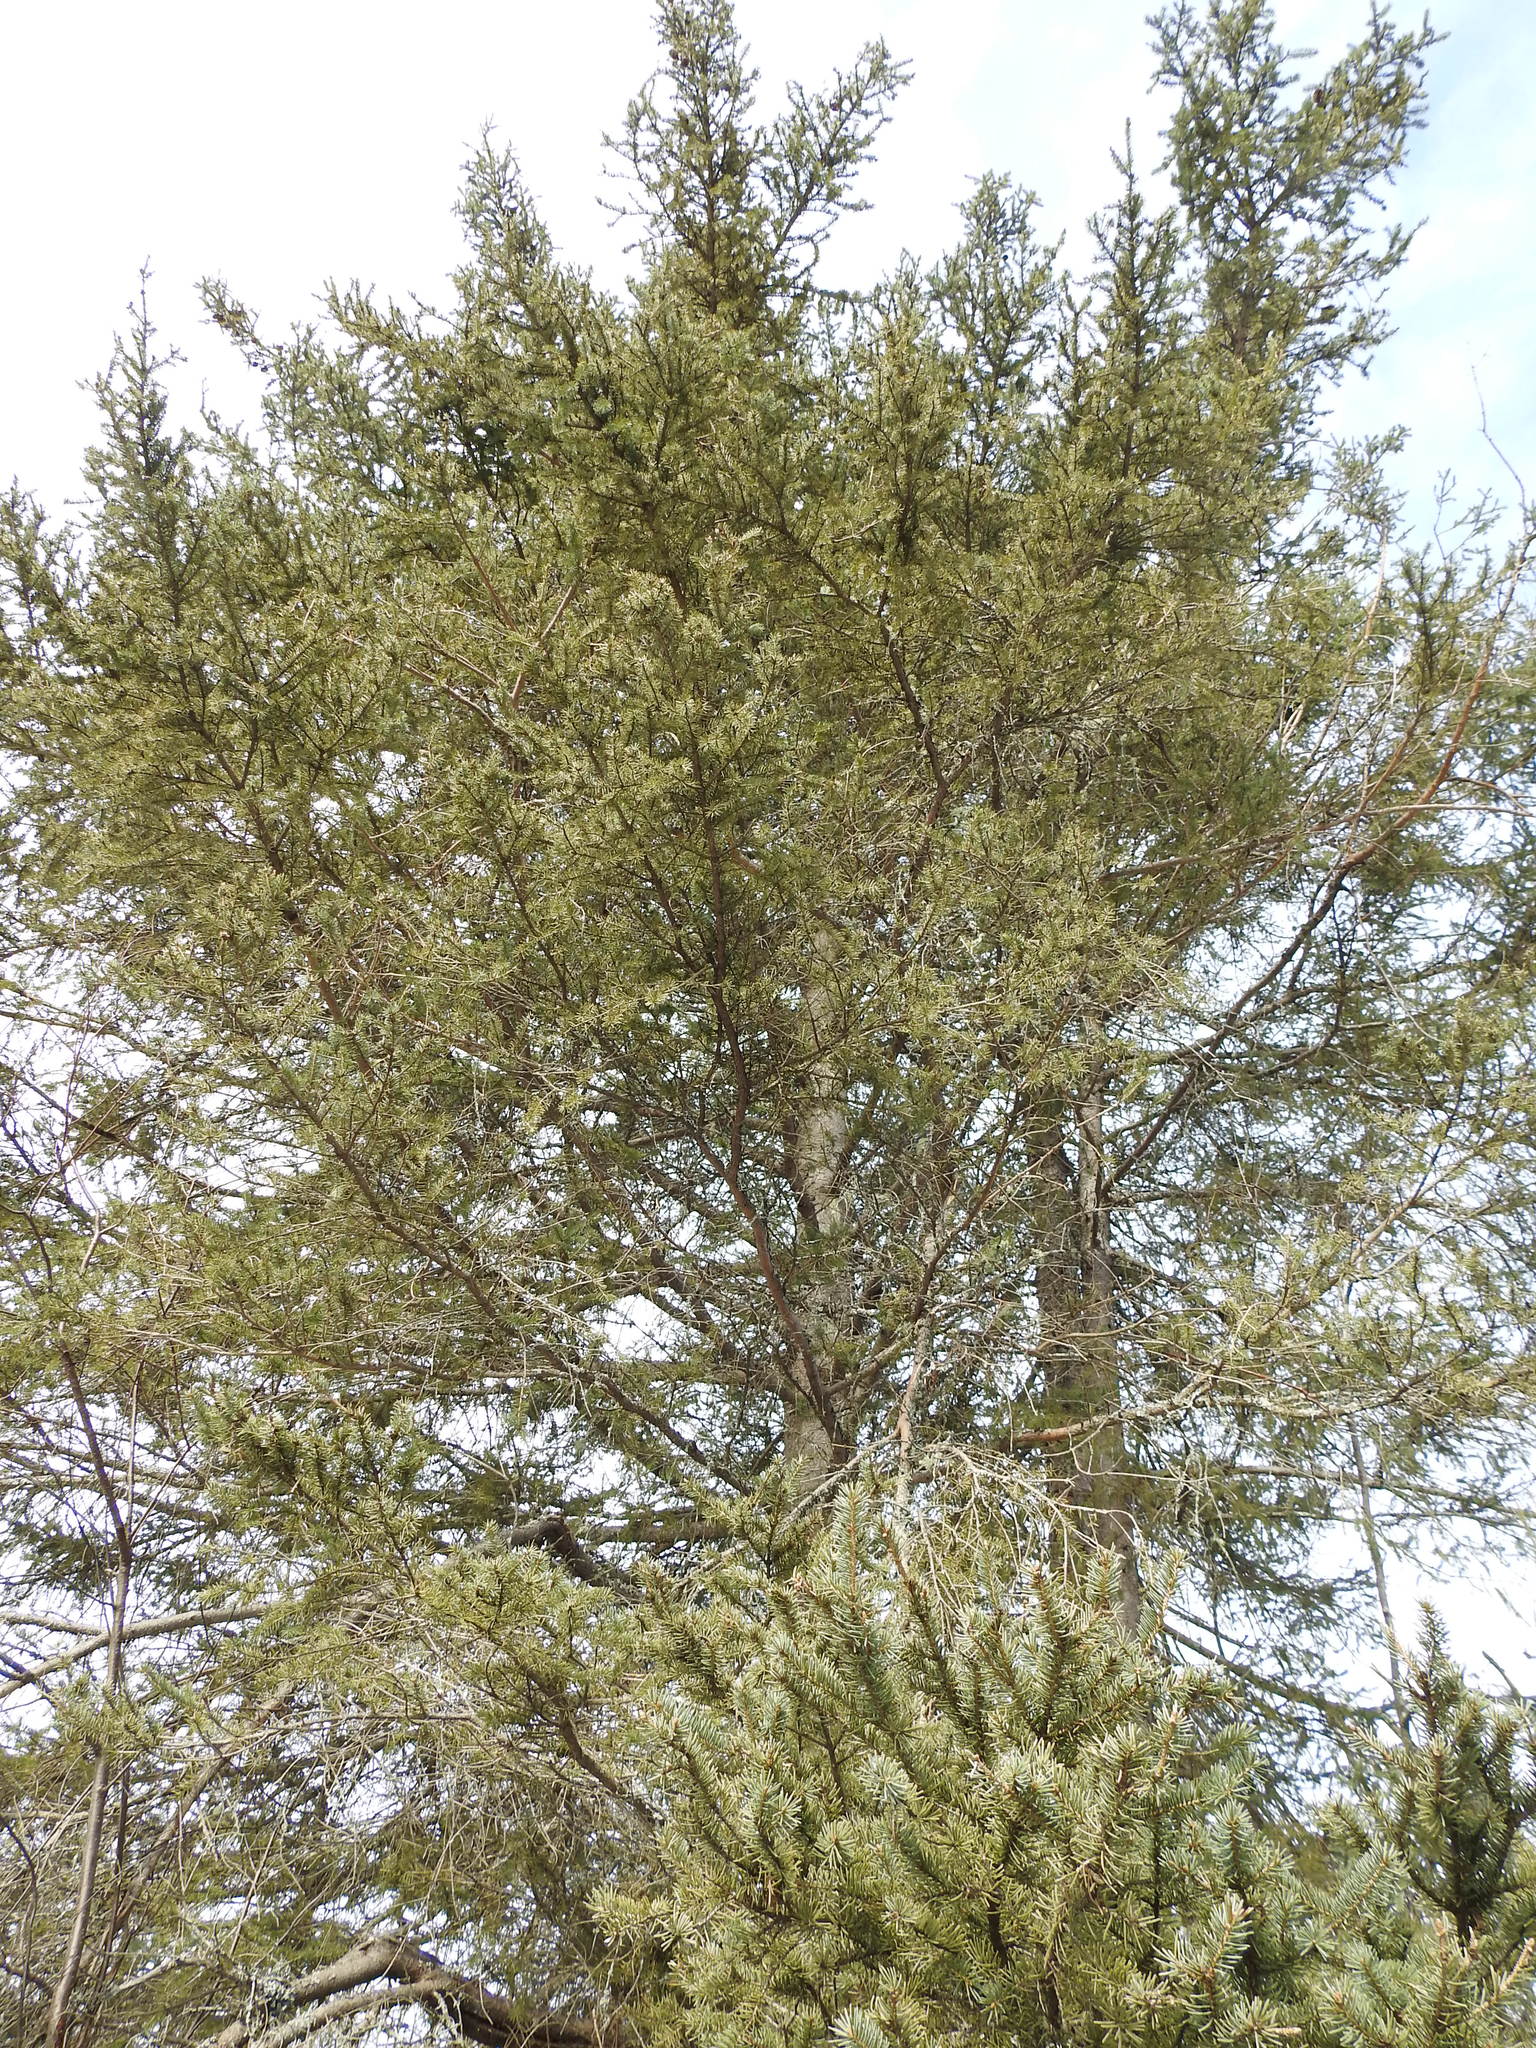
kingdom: Plantae
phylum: Tracheophyta
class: Pinopsida
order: Pinales
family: Pinaceae
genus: Picea
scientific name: Picea glauca
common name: White spruce
